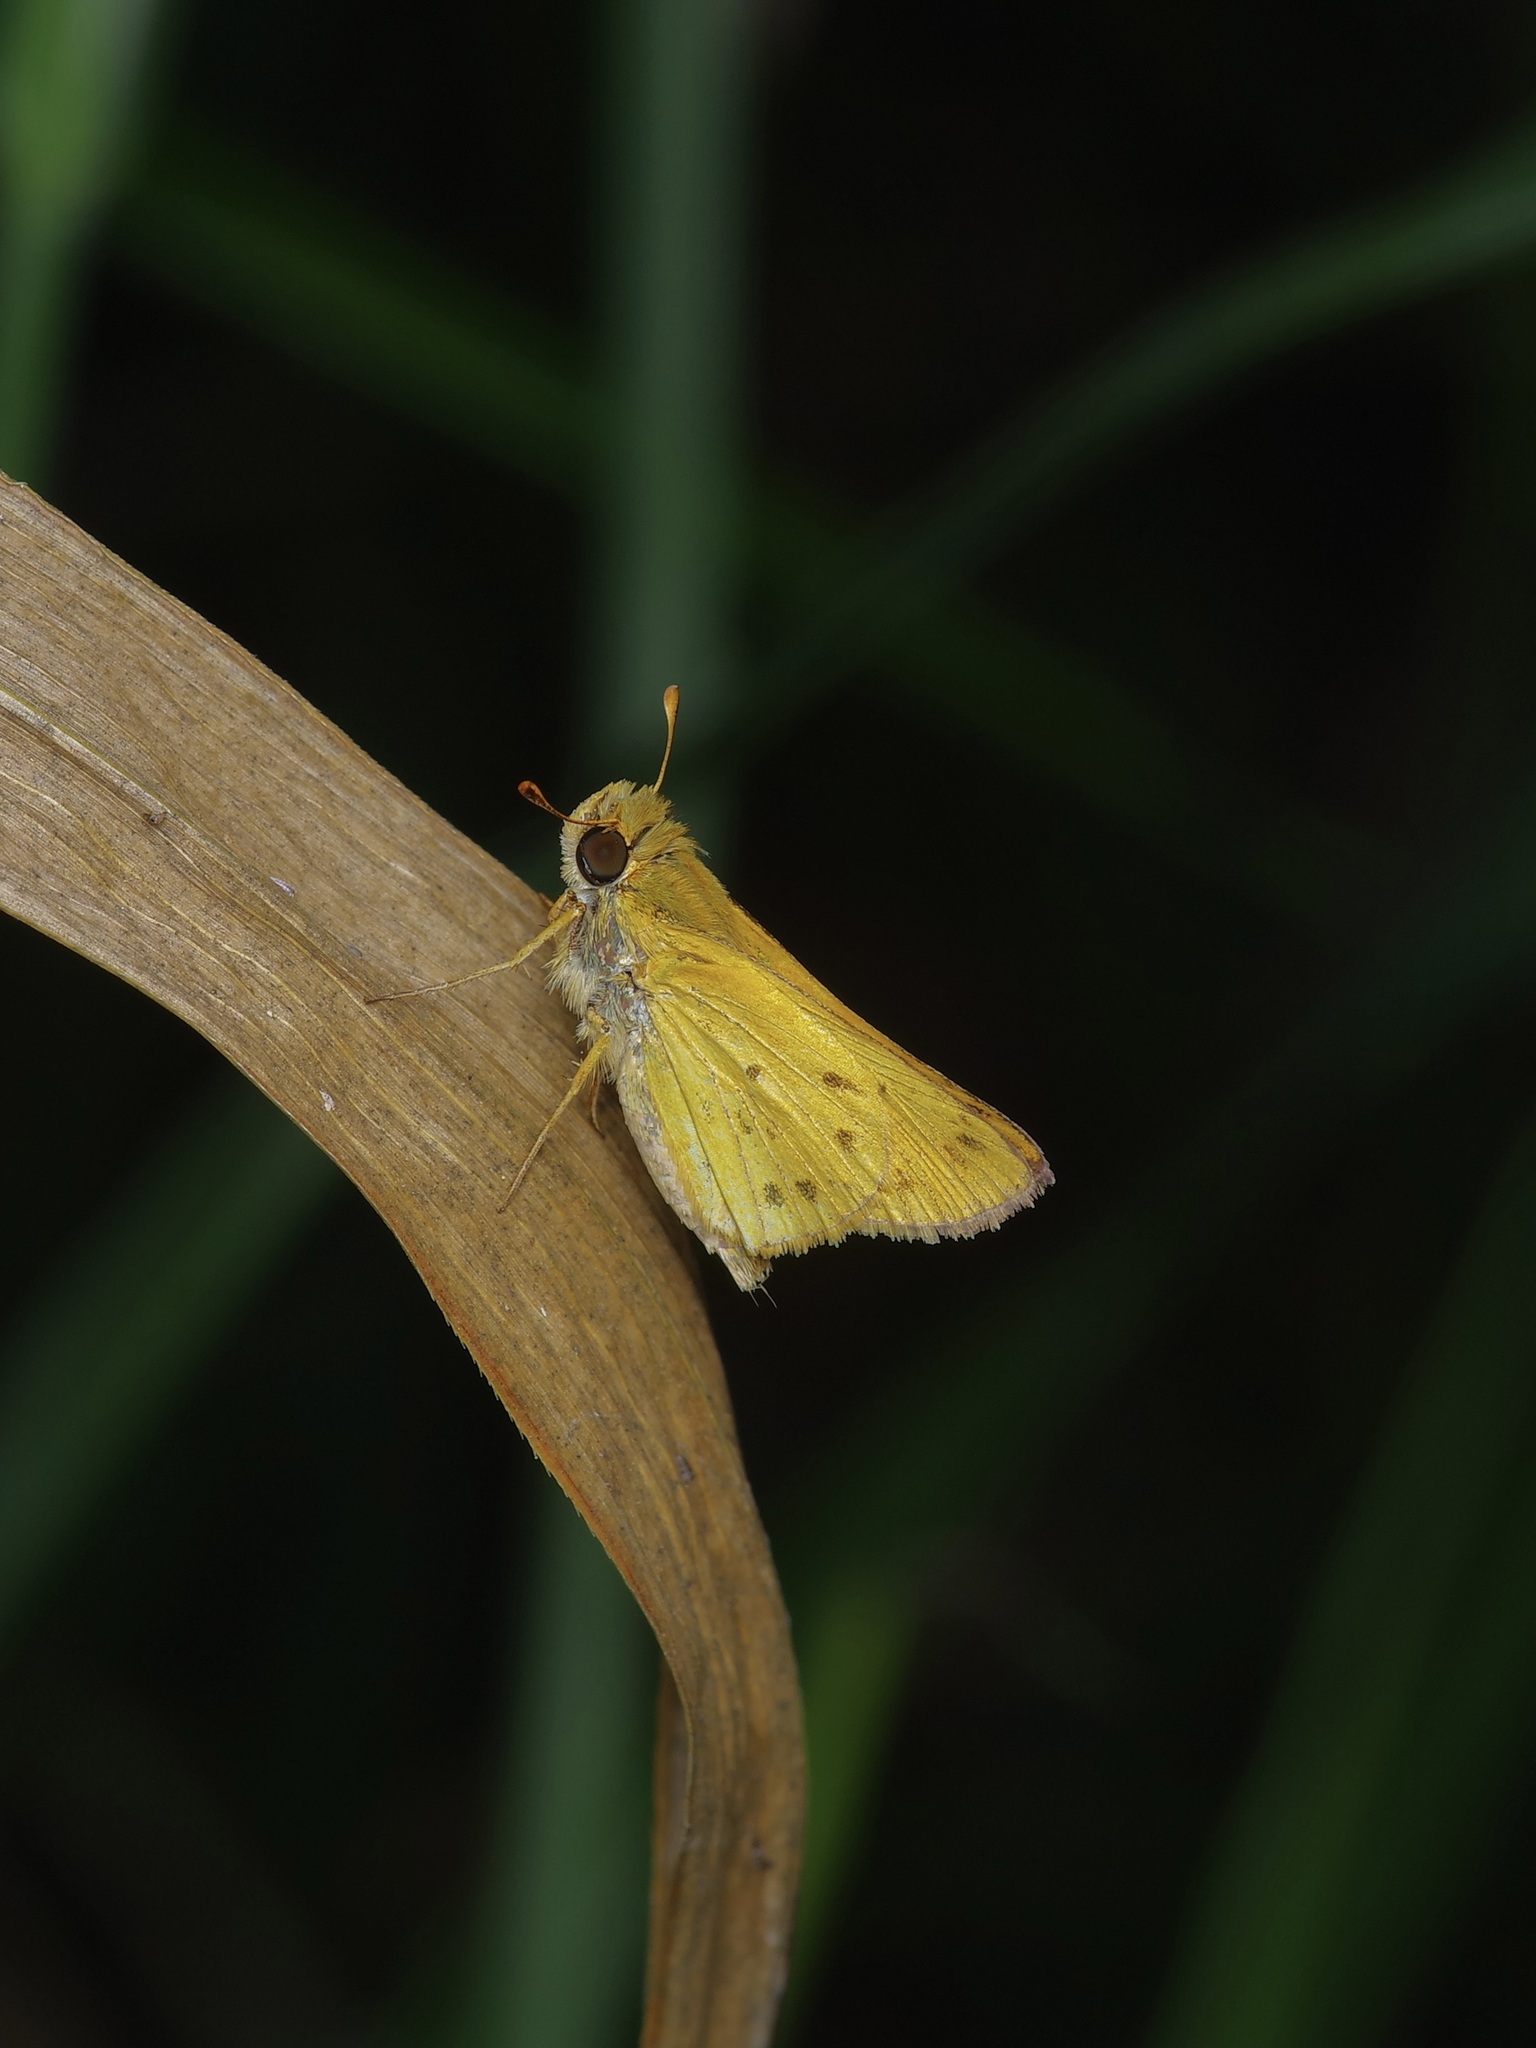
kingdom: Animalia
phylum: Arthropoda
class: Insecta
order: Lepidoptera
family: Hesperiidae
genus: Hylephila
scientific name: Hylephila phyleus
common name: Fiery skipper
